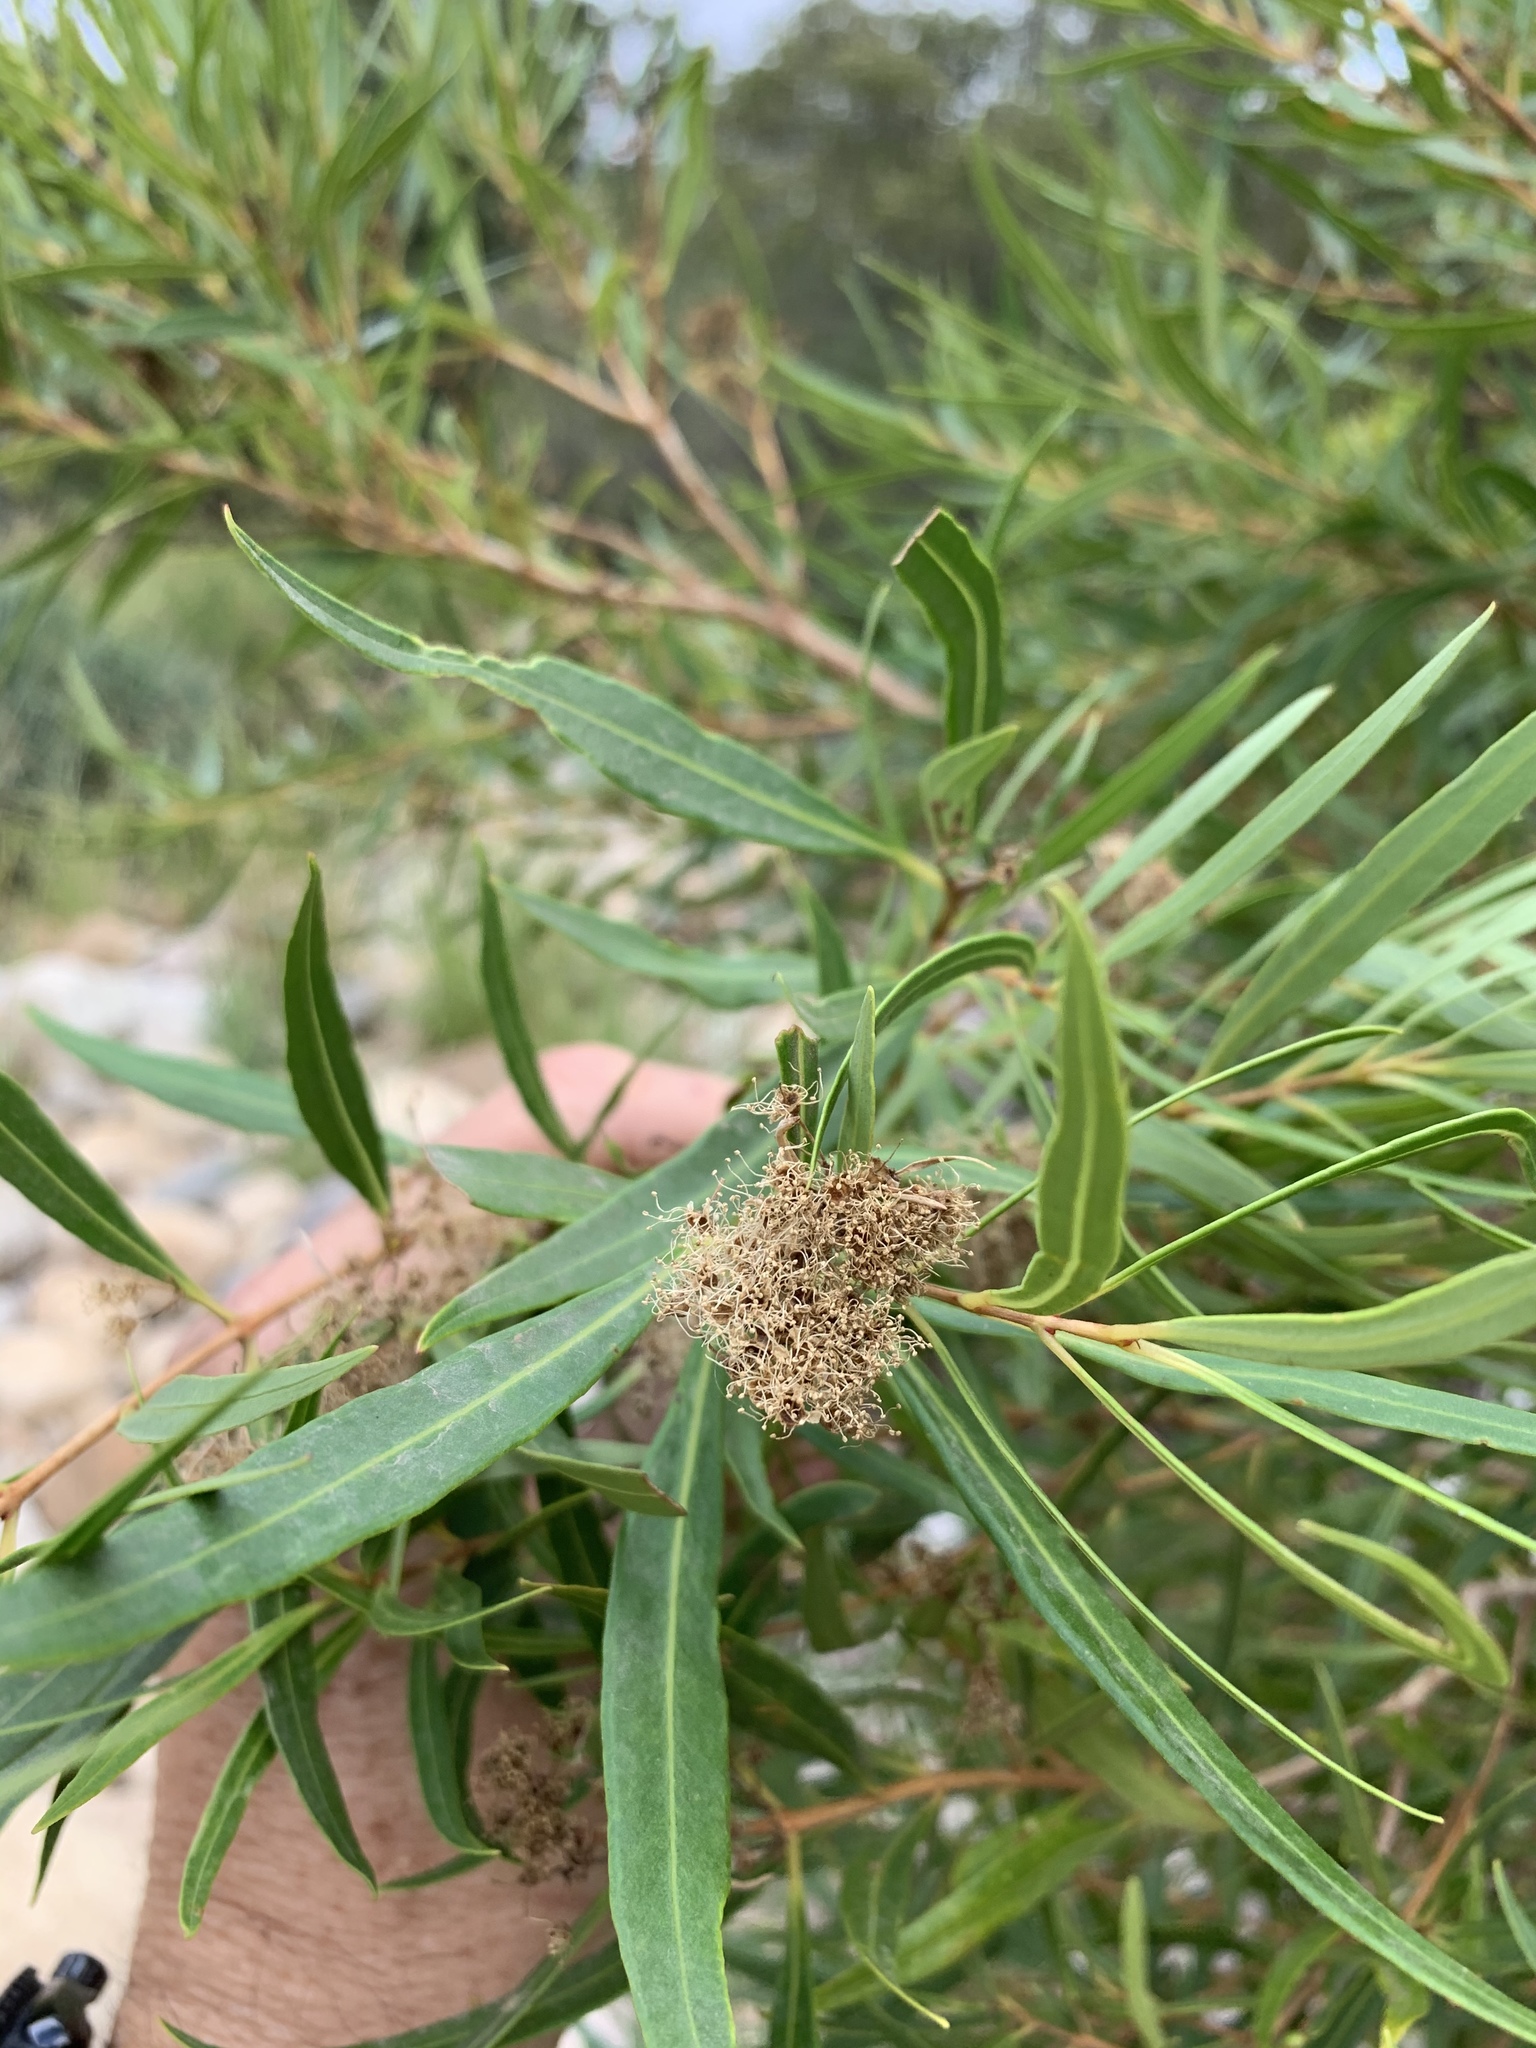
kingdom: Plantae
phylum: Tracheophyta
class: Magnoliopsida
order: Myrtales
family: Myrtaceae
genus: Callistemon
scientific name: Callistemon lanceolatus
